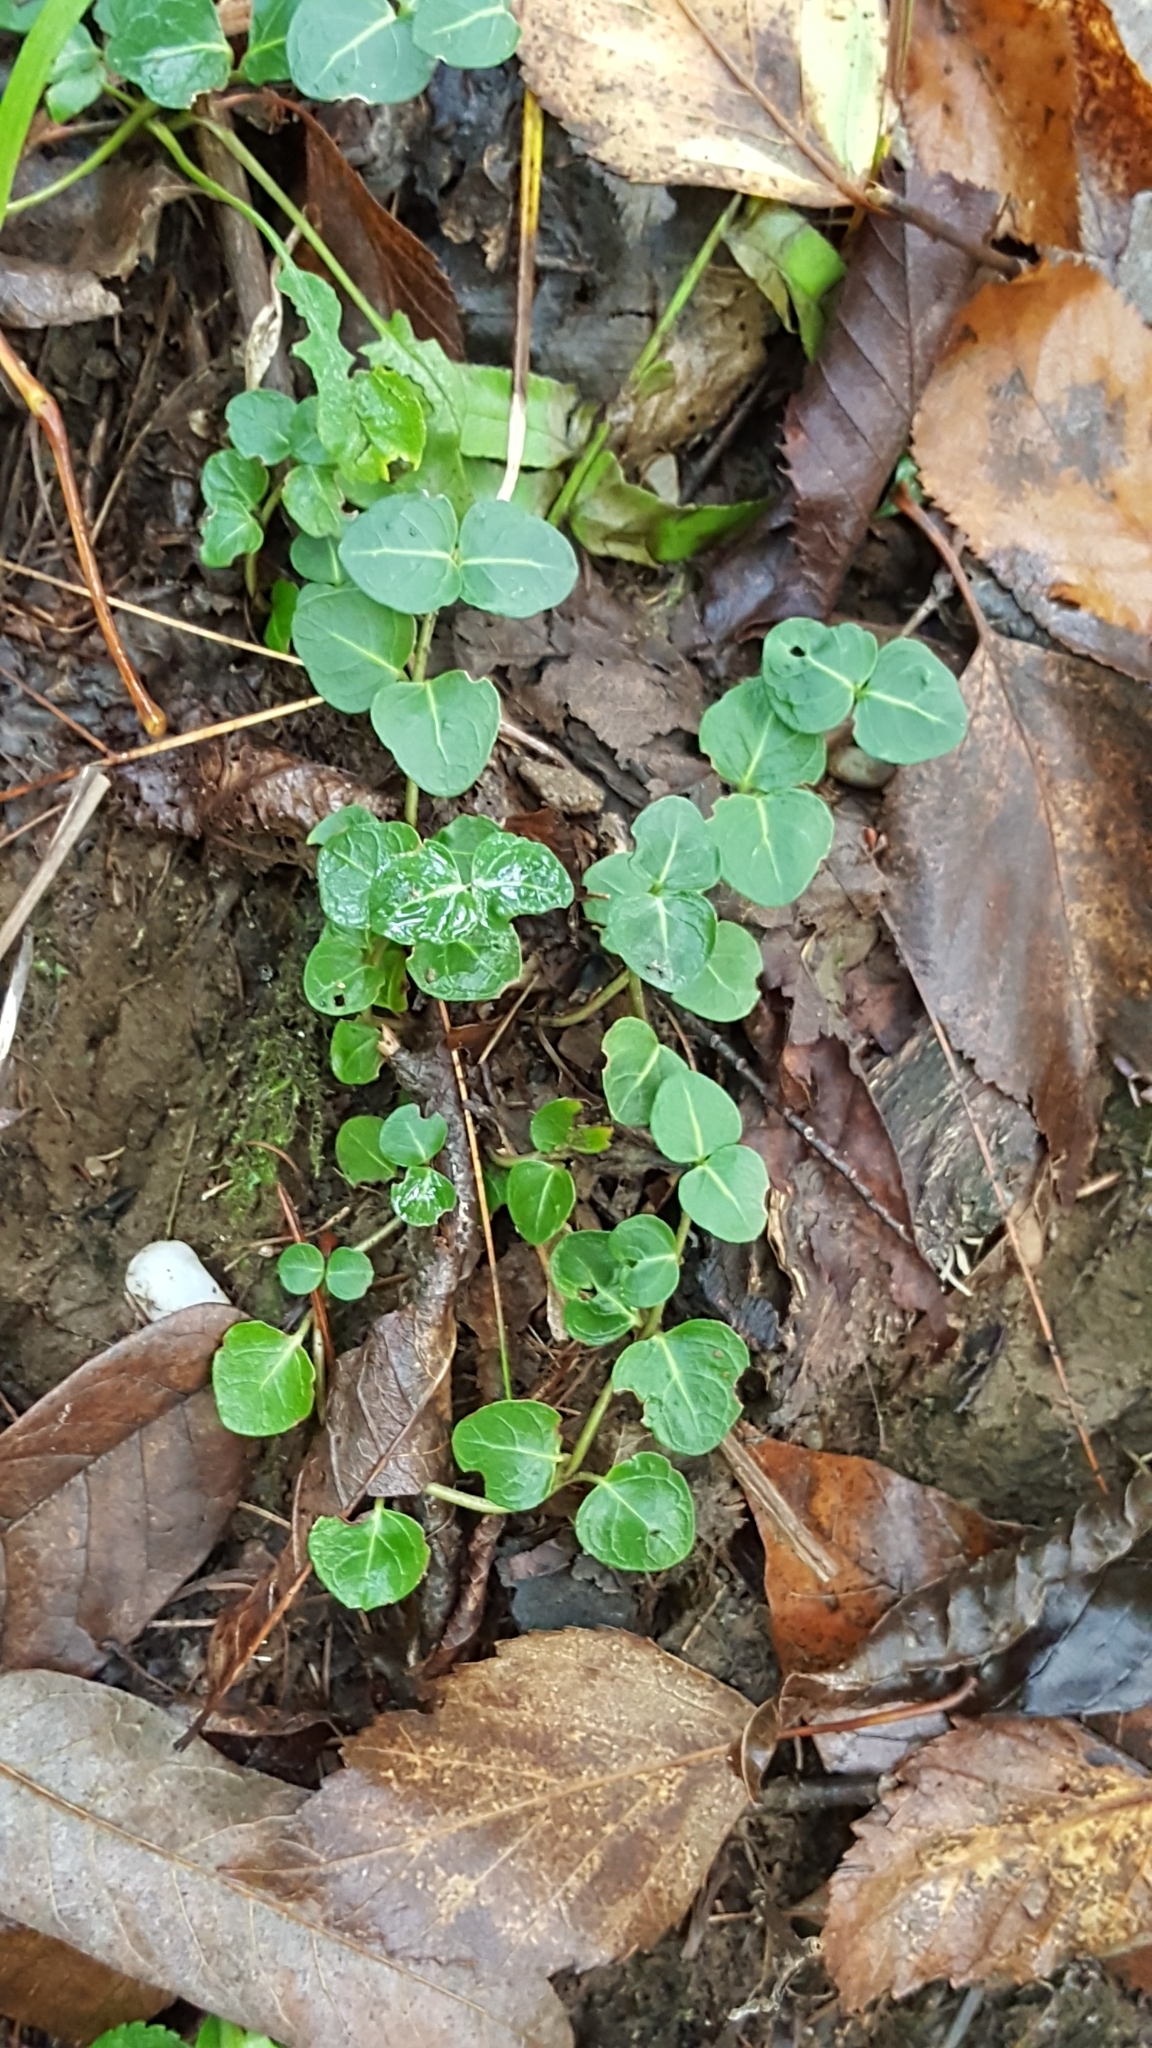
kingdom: Plantae
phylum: Tracheophyta
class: Magnoliopsida
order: Gentianales
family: Rubiaceae
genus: Mitchella
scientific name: Mitchella repens
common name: Partridge-berry
